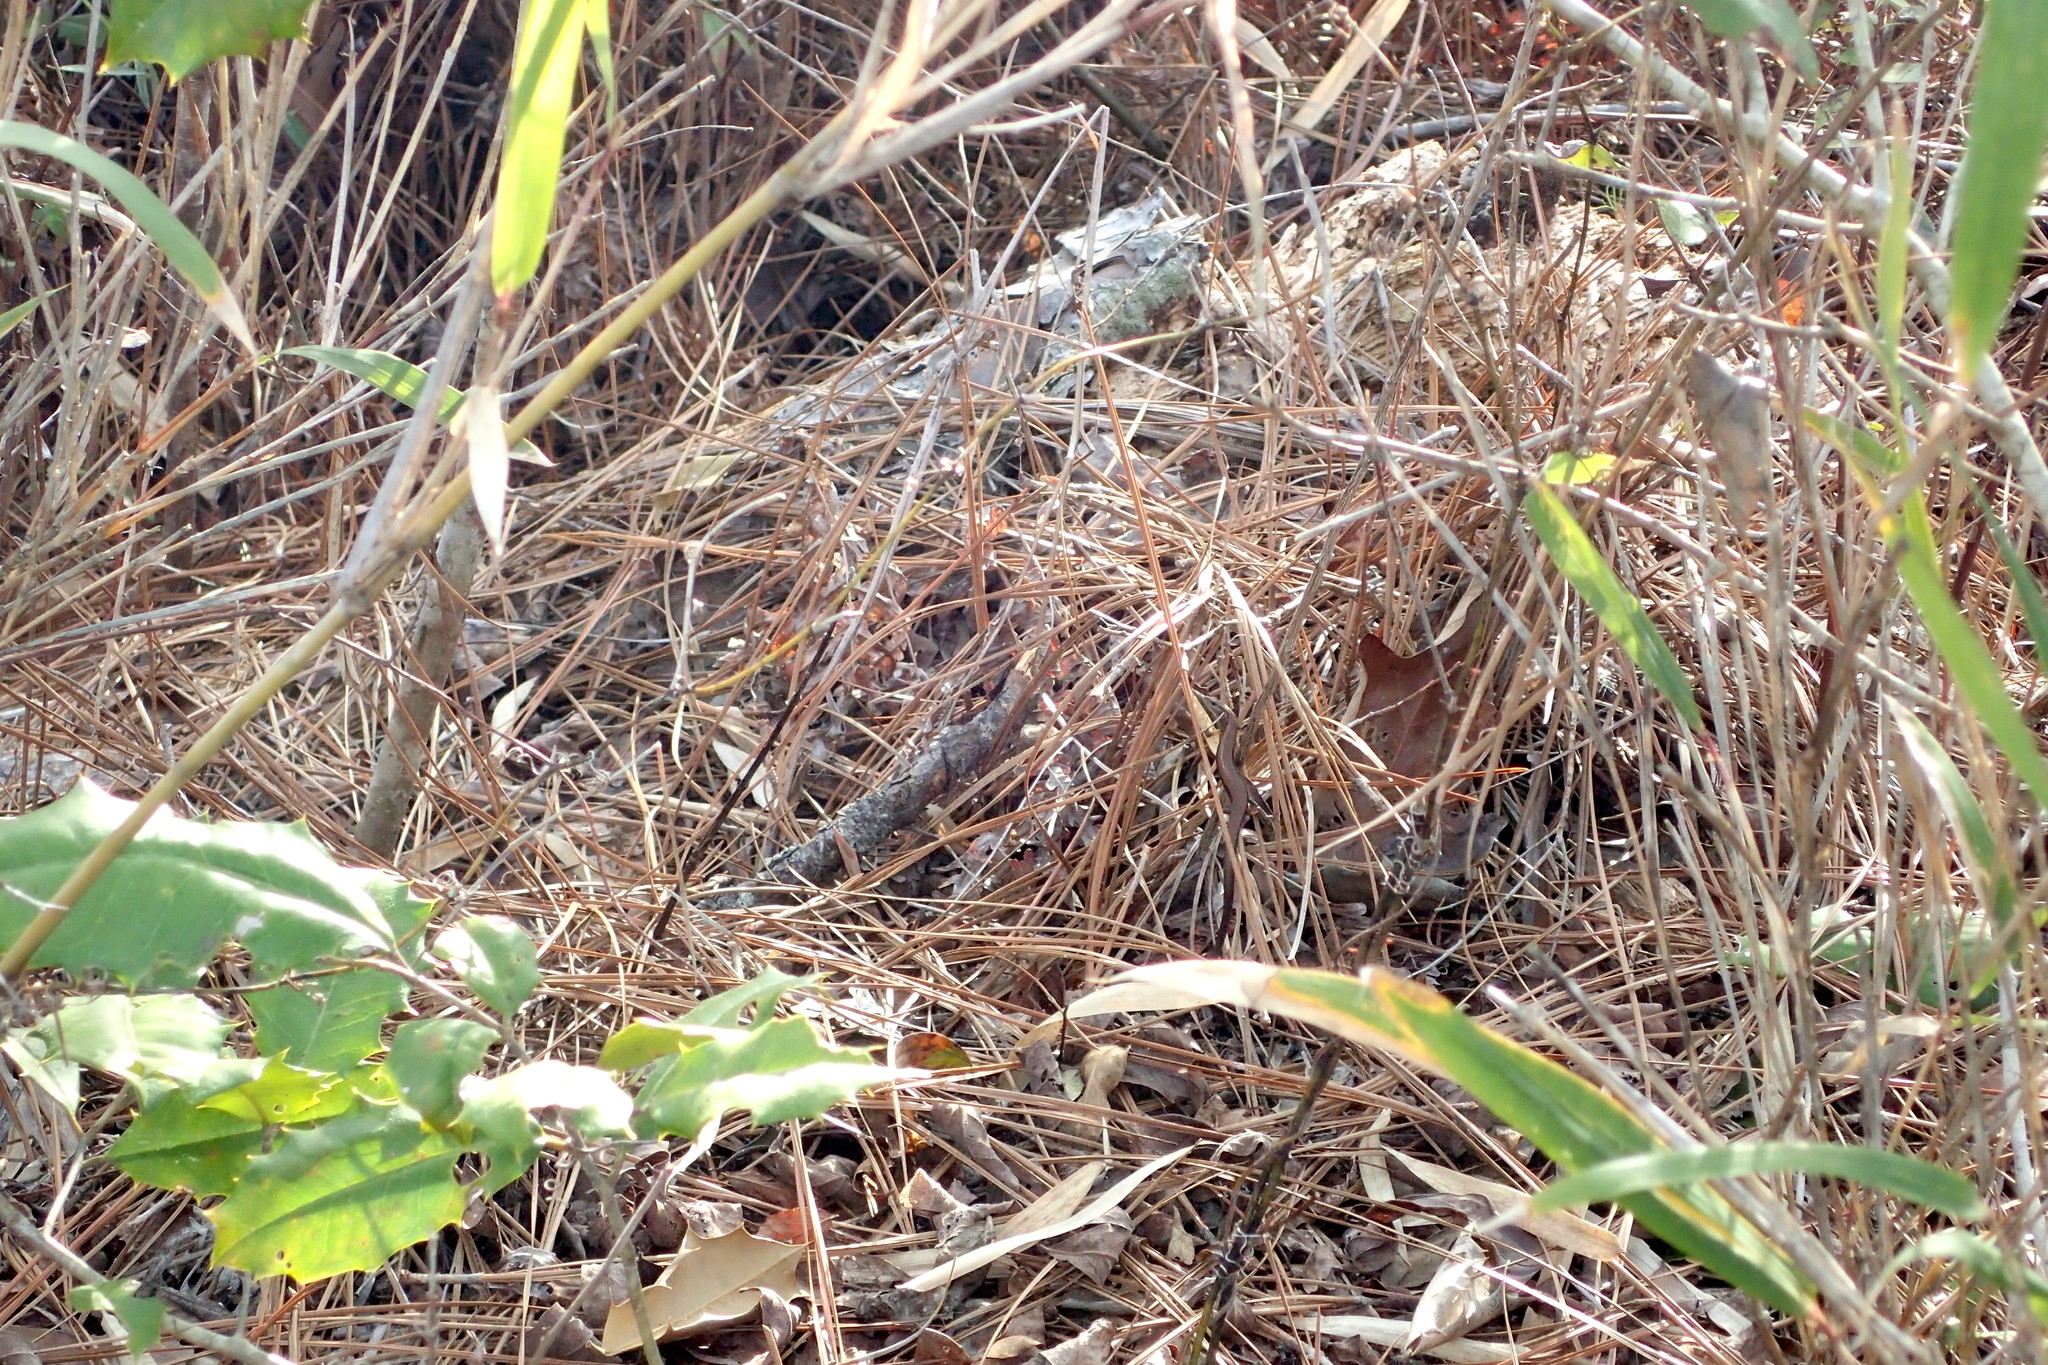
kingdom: Animalia
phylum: Chordata
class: Squamata
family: Scincidae
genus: Scincella
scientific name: Scincella lateralis
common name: Ground skink
